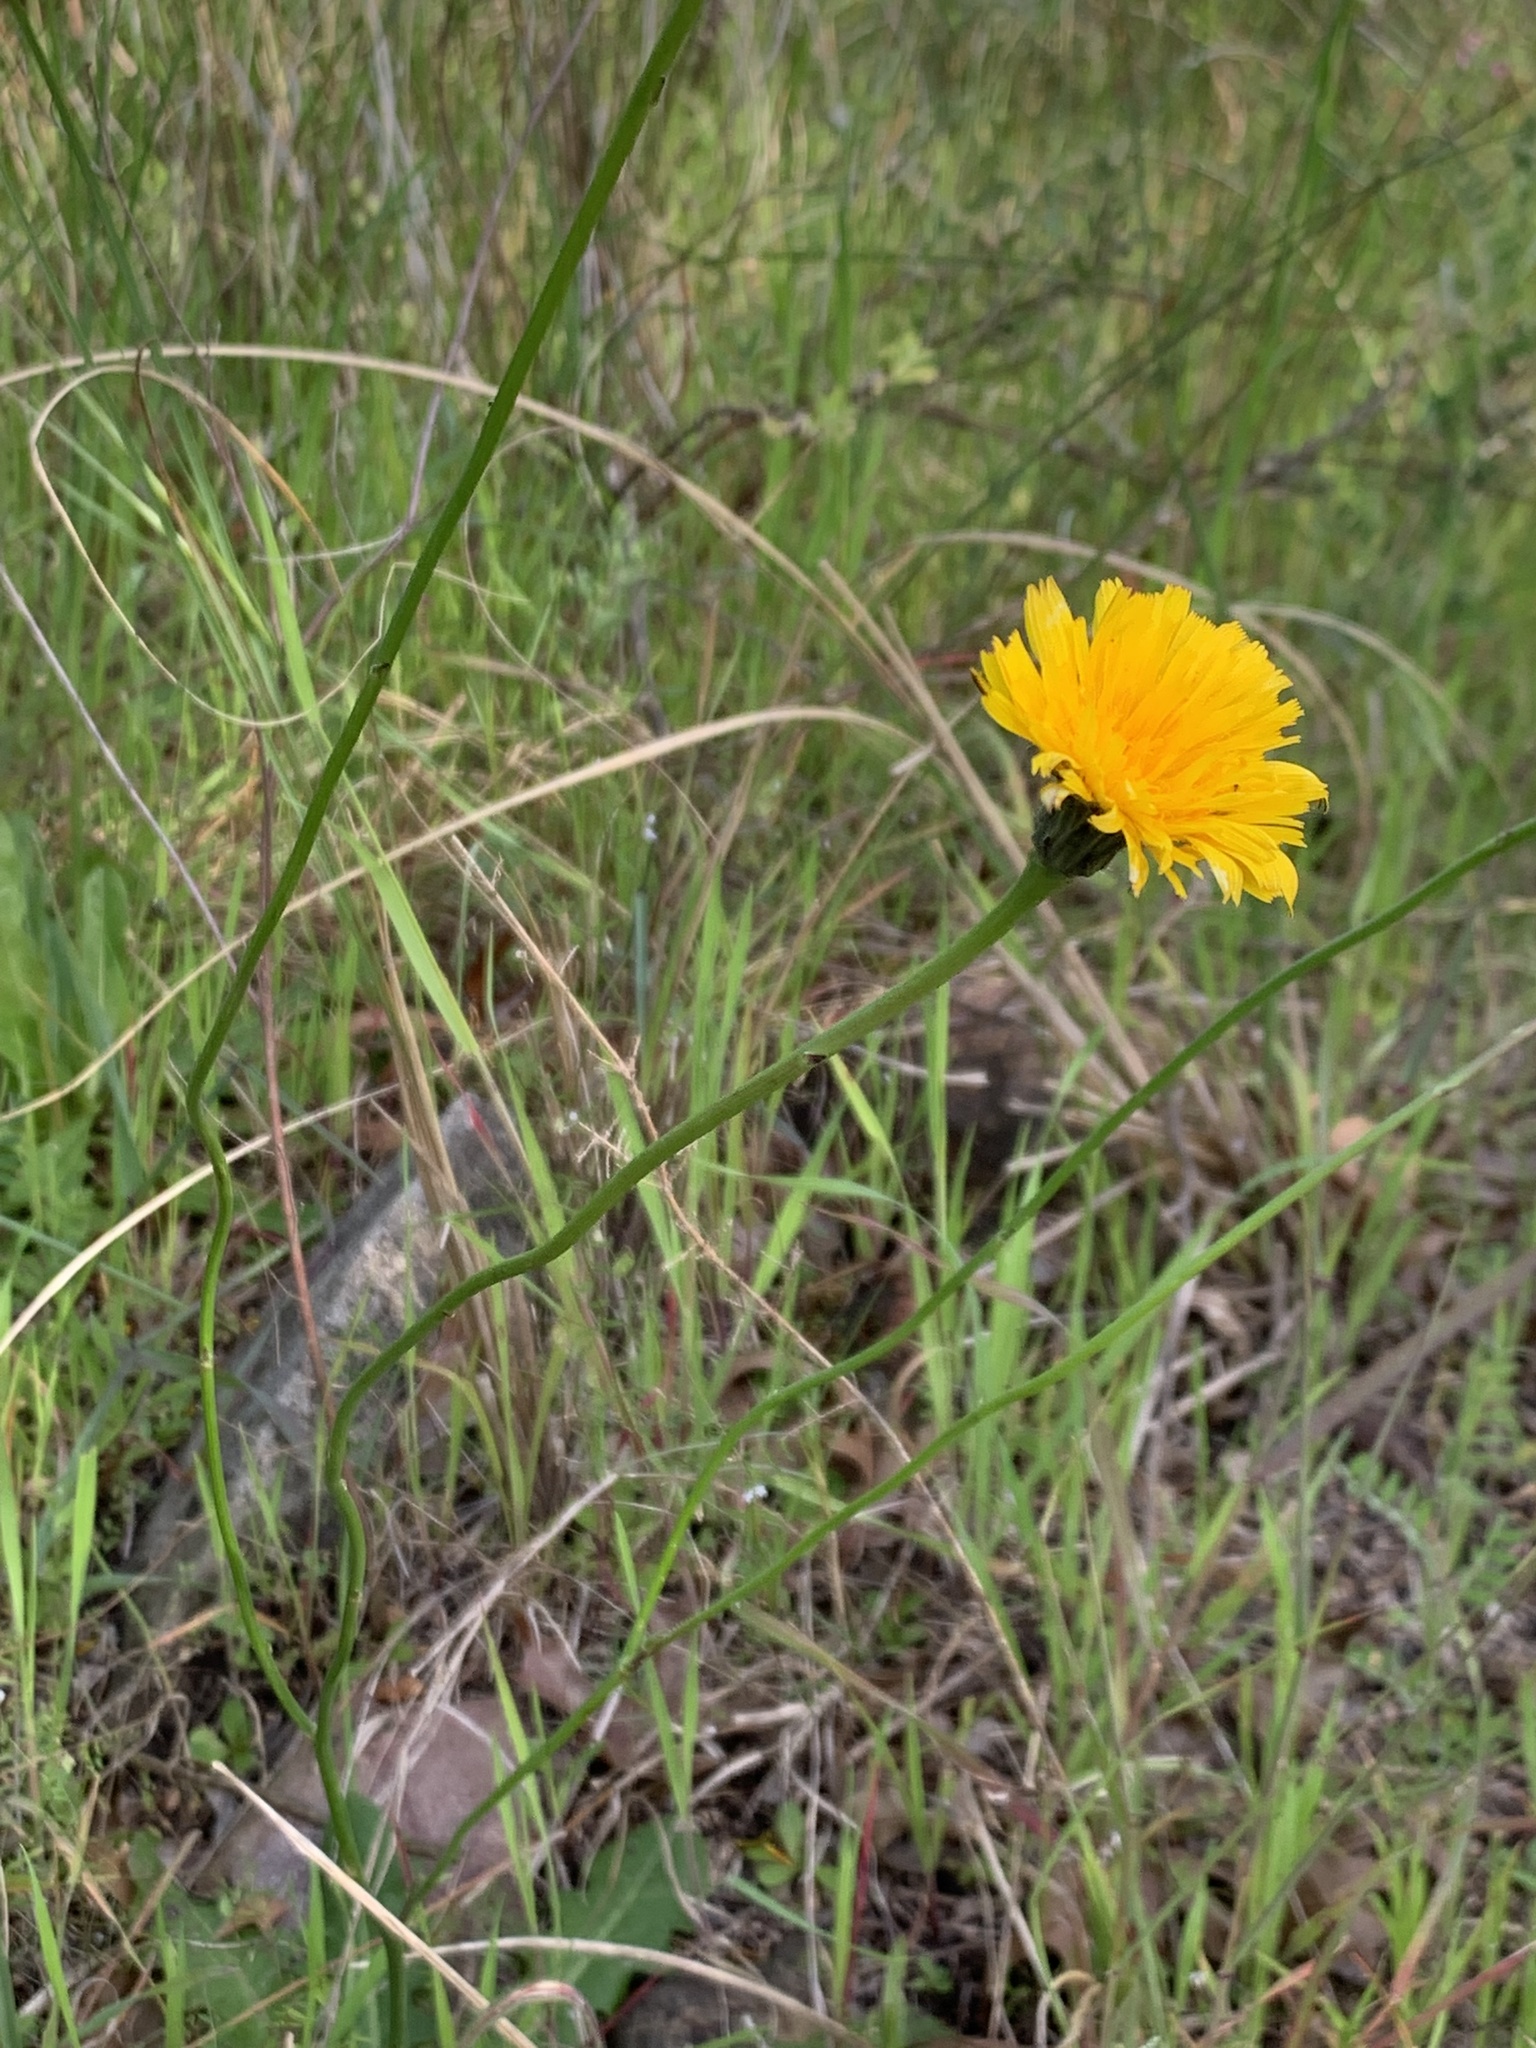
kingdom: Plantae
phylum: Tracheophyta
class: Magnoliopsida
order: Asterales
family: Asteraceae
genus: Hypochaeris
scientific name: Hypochaeris radicata
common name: Flatweed
